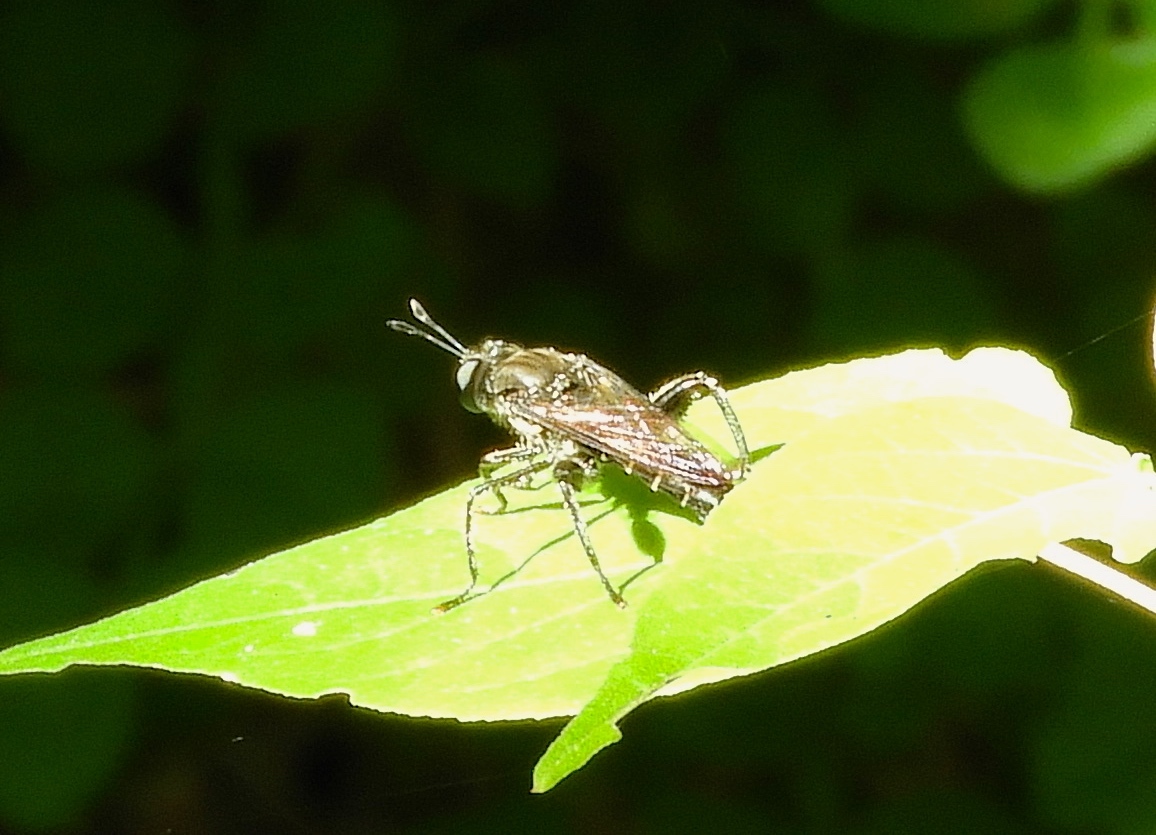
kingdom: Animalia
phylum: Arthropoda
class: Insecta
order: Diptera
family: Mydidae
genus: Mydas
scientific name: Mydas
